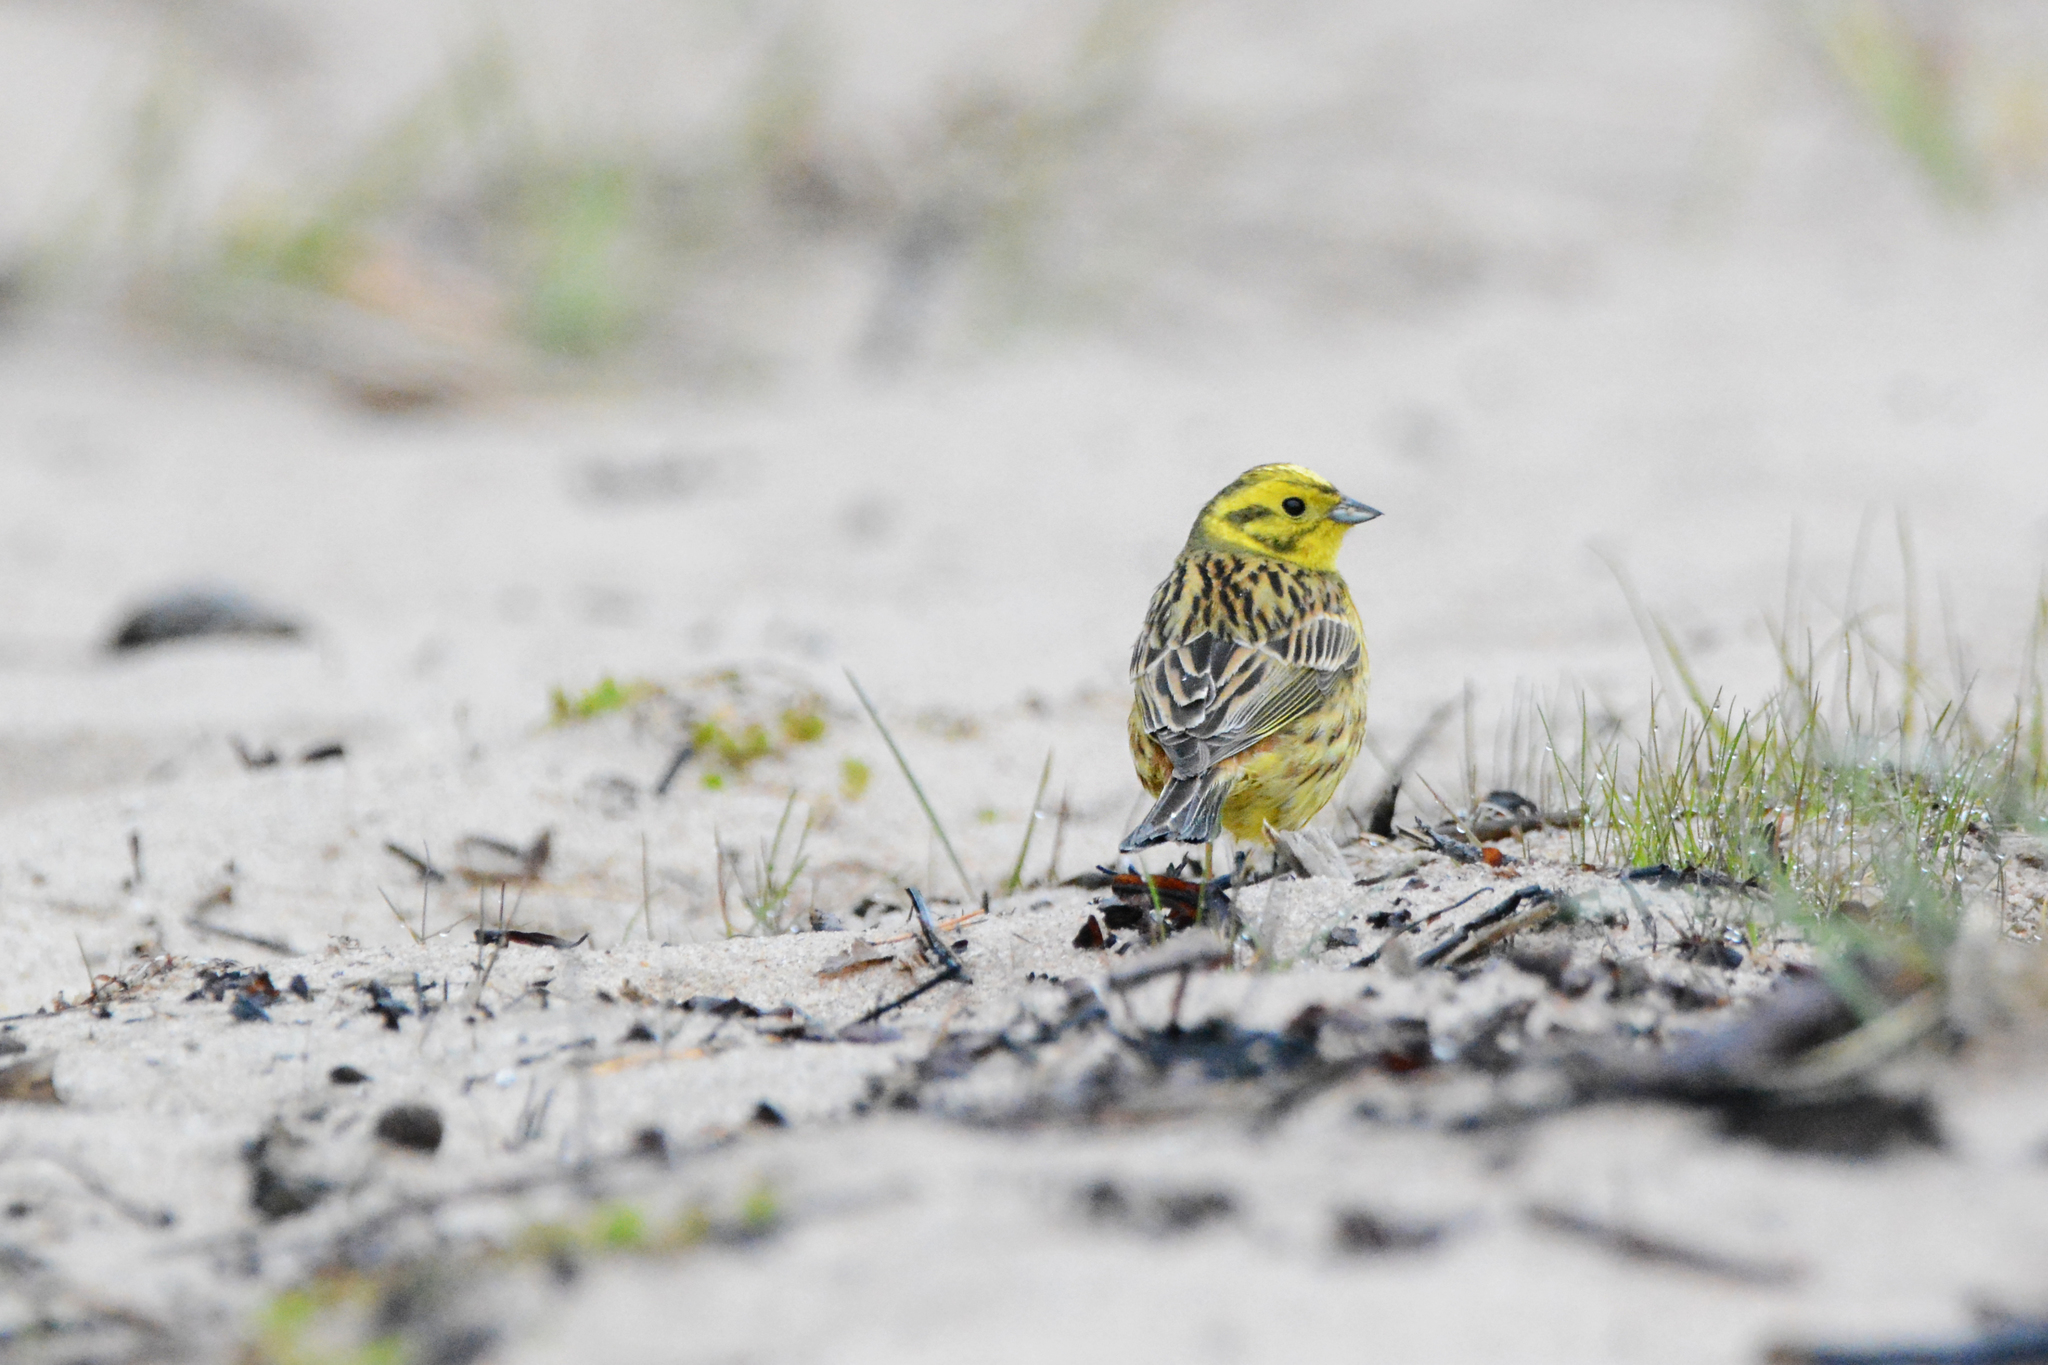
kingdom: Animalia
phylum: Chordata
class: Aves
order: Passeriformes
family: Emberizidae
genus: Emberiza
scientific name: Emberiza citrinella
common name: Yellowhammer
